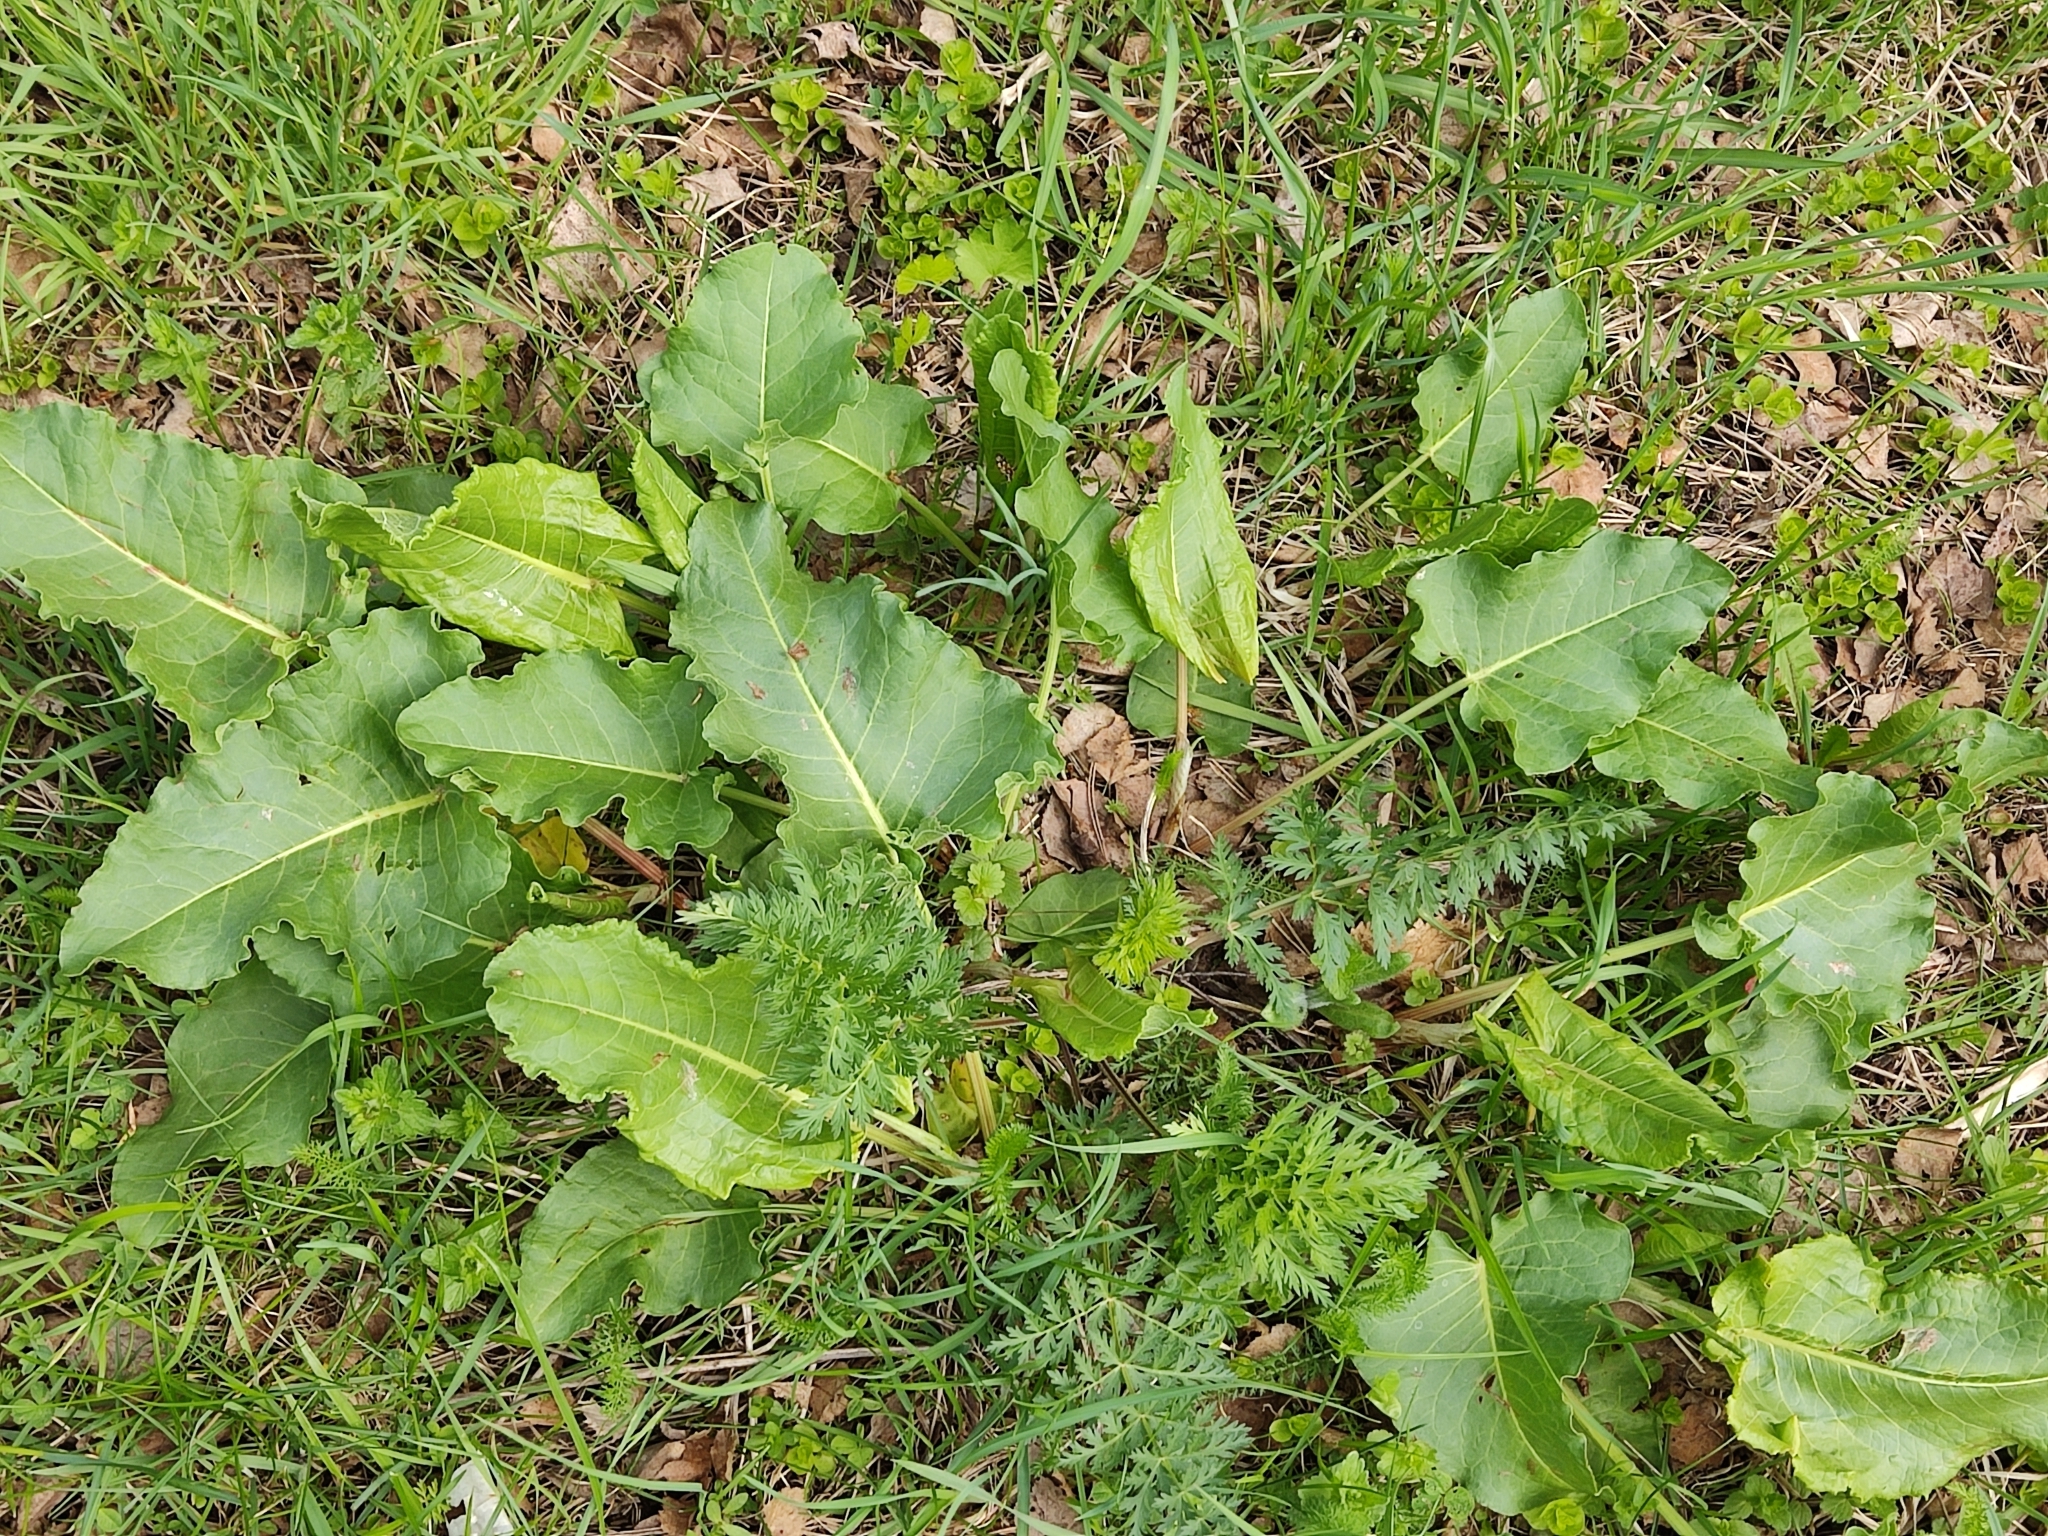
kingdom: Plantae
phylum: Tracheophyta
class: Magnoliopsida
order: Caryophyllales
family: Polygonaceae
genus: Rumex
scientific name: Rumex confertus
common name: Russian dock
